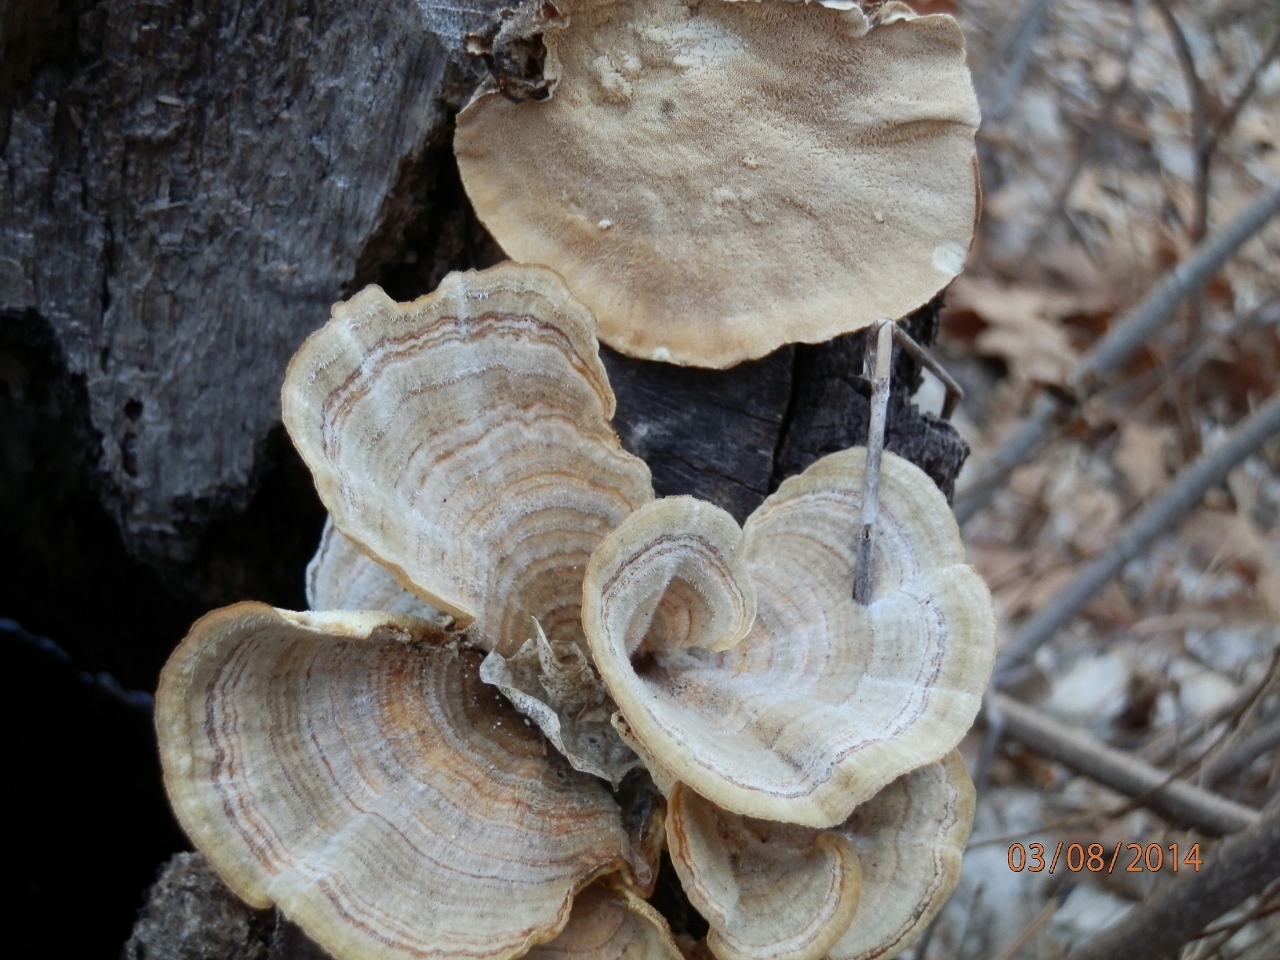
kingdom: Fungi
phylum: Basidiomycota
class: Agaricomycetes
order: Polyporales
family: Polyporaceae
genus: Trametes
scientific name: Trametes versicolor
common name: Turkeytail
